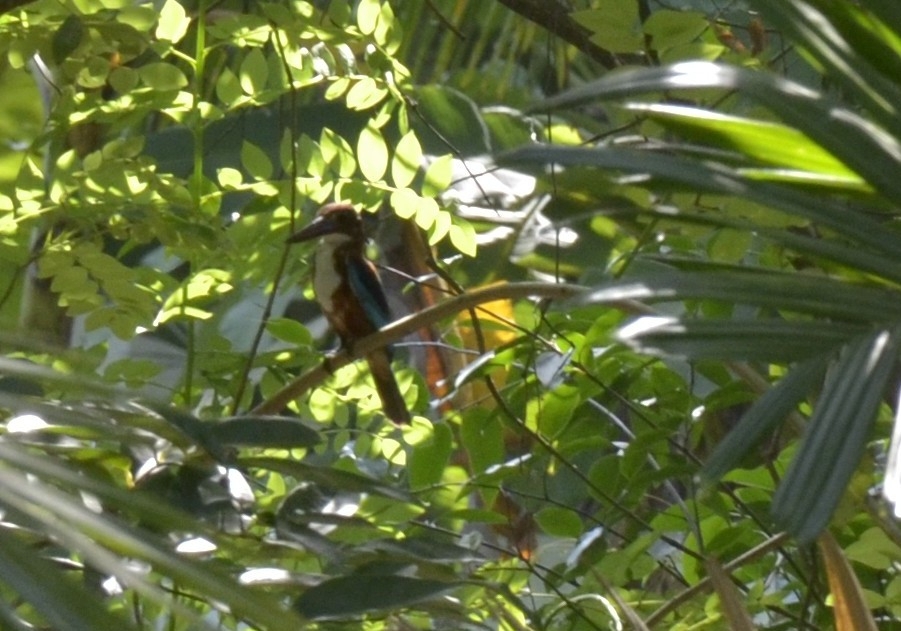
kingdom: Animalia
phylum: Chordata
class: Aves
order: Coraciiformes
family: Alcedinidae
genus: Halcyon
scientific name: Halcyon smyrnensis
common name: White-throated kingfisher
